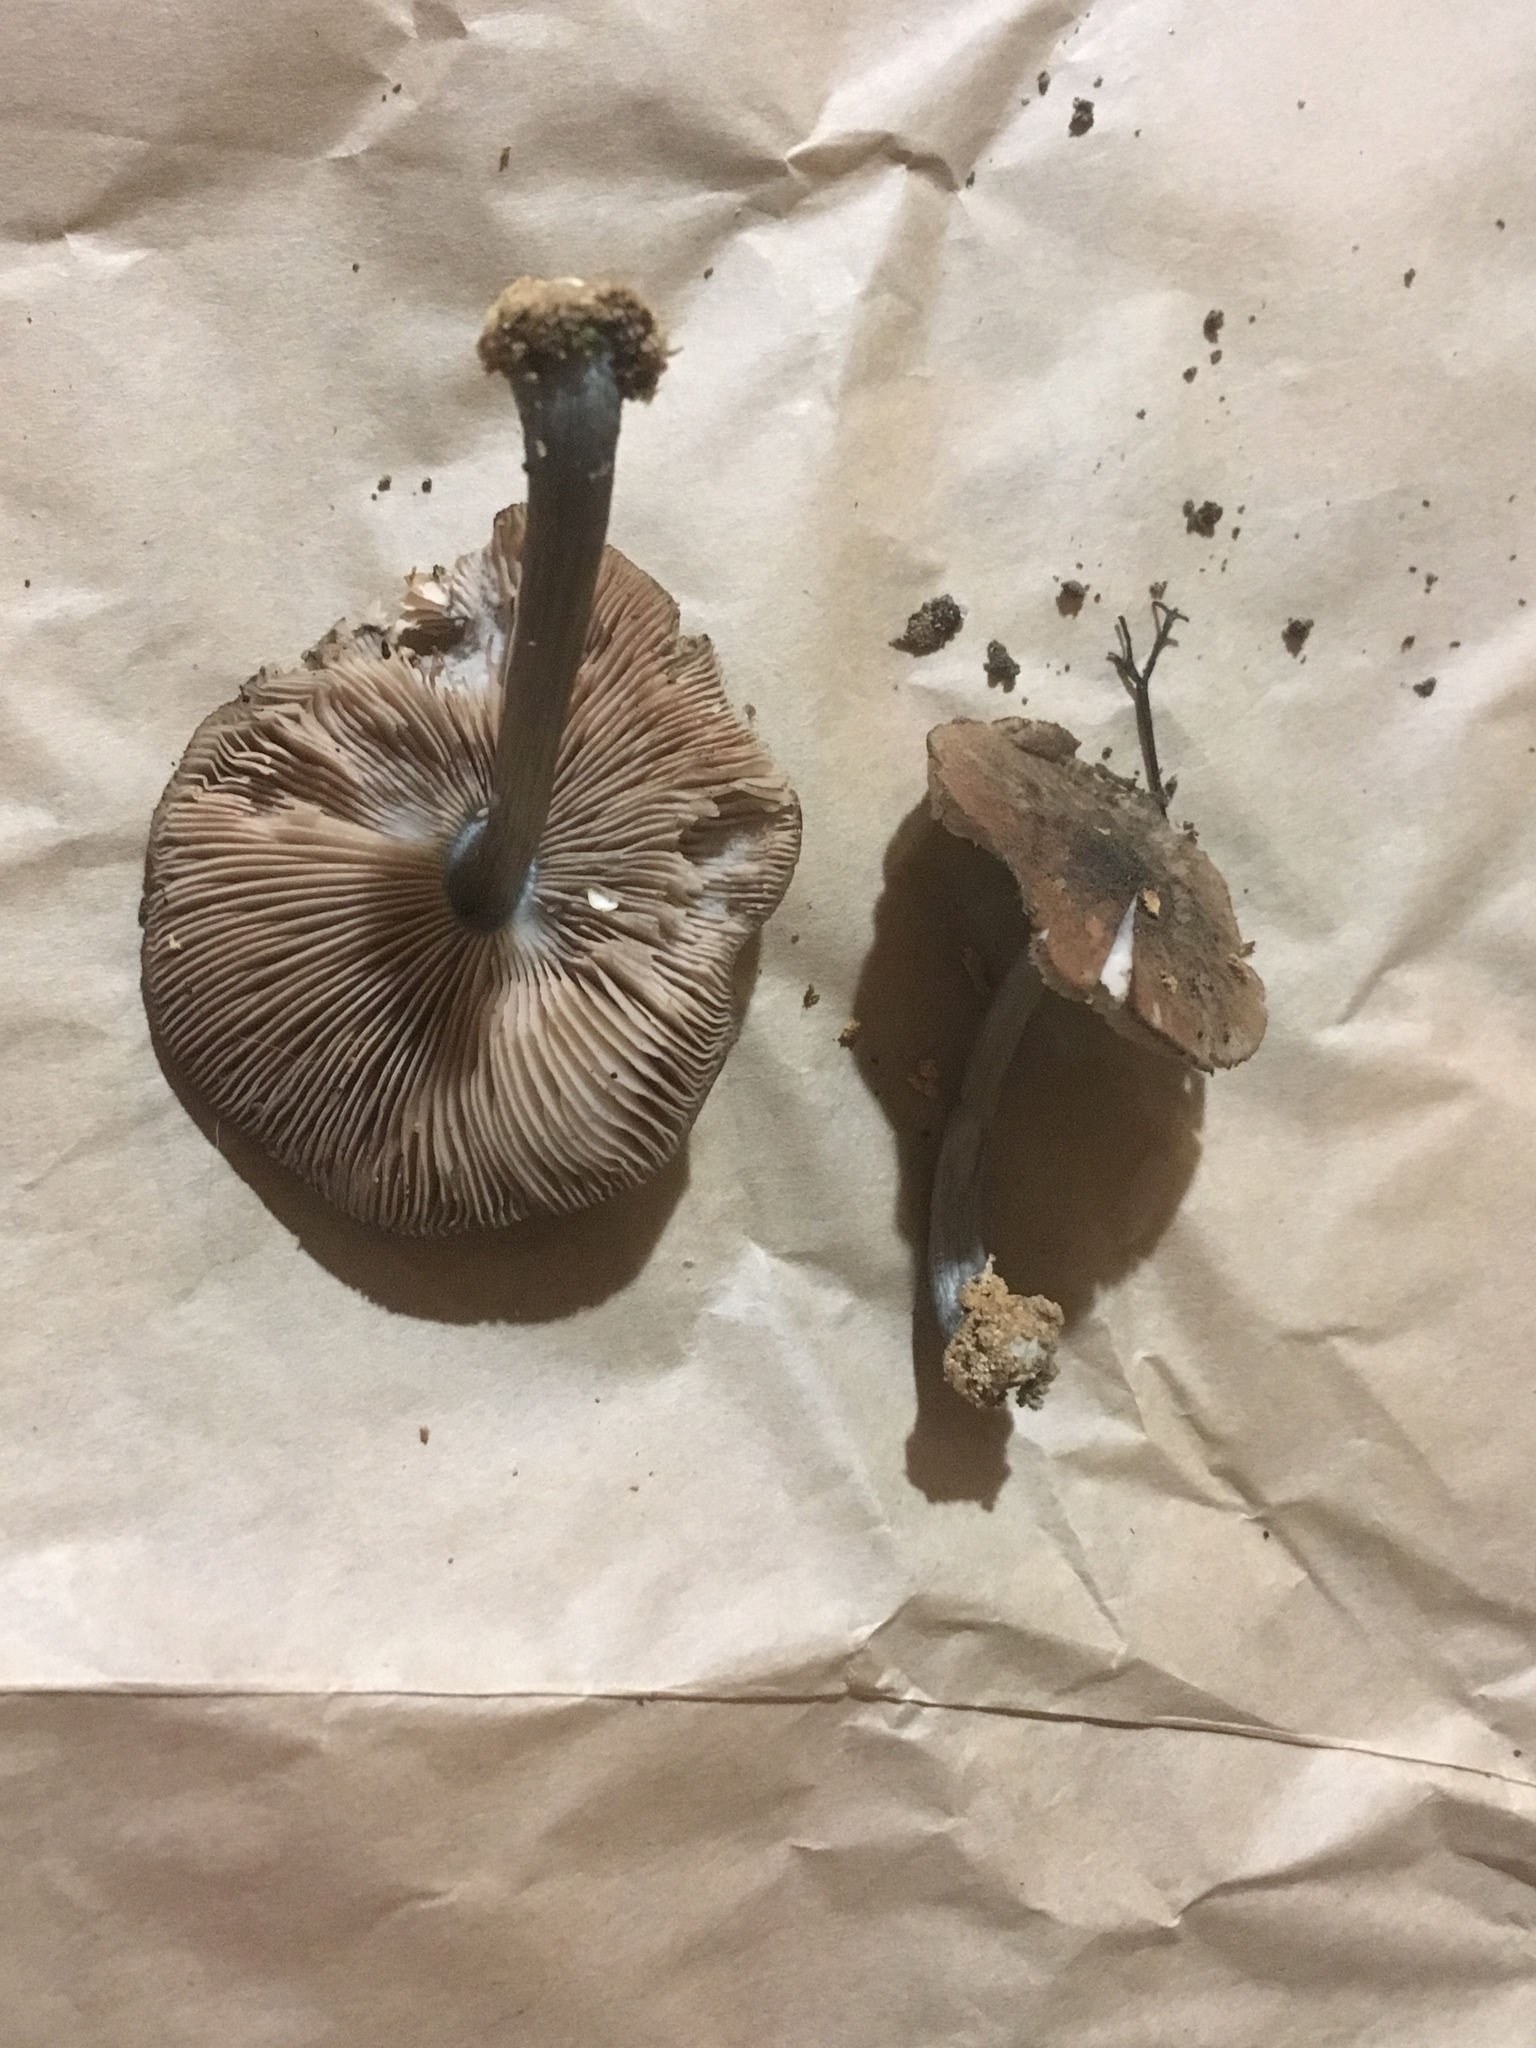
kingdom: Fungi
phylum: Basidiomycota
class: Agaricomycetes
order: Agaricales
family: Pluteaceae
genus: Pluteus
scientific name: Pluteus velutinornatus
